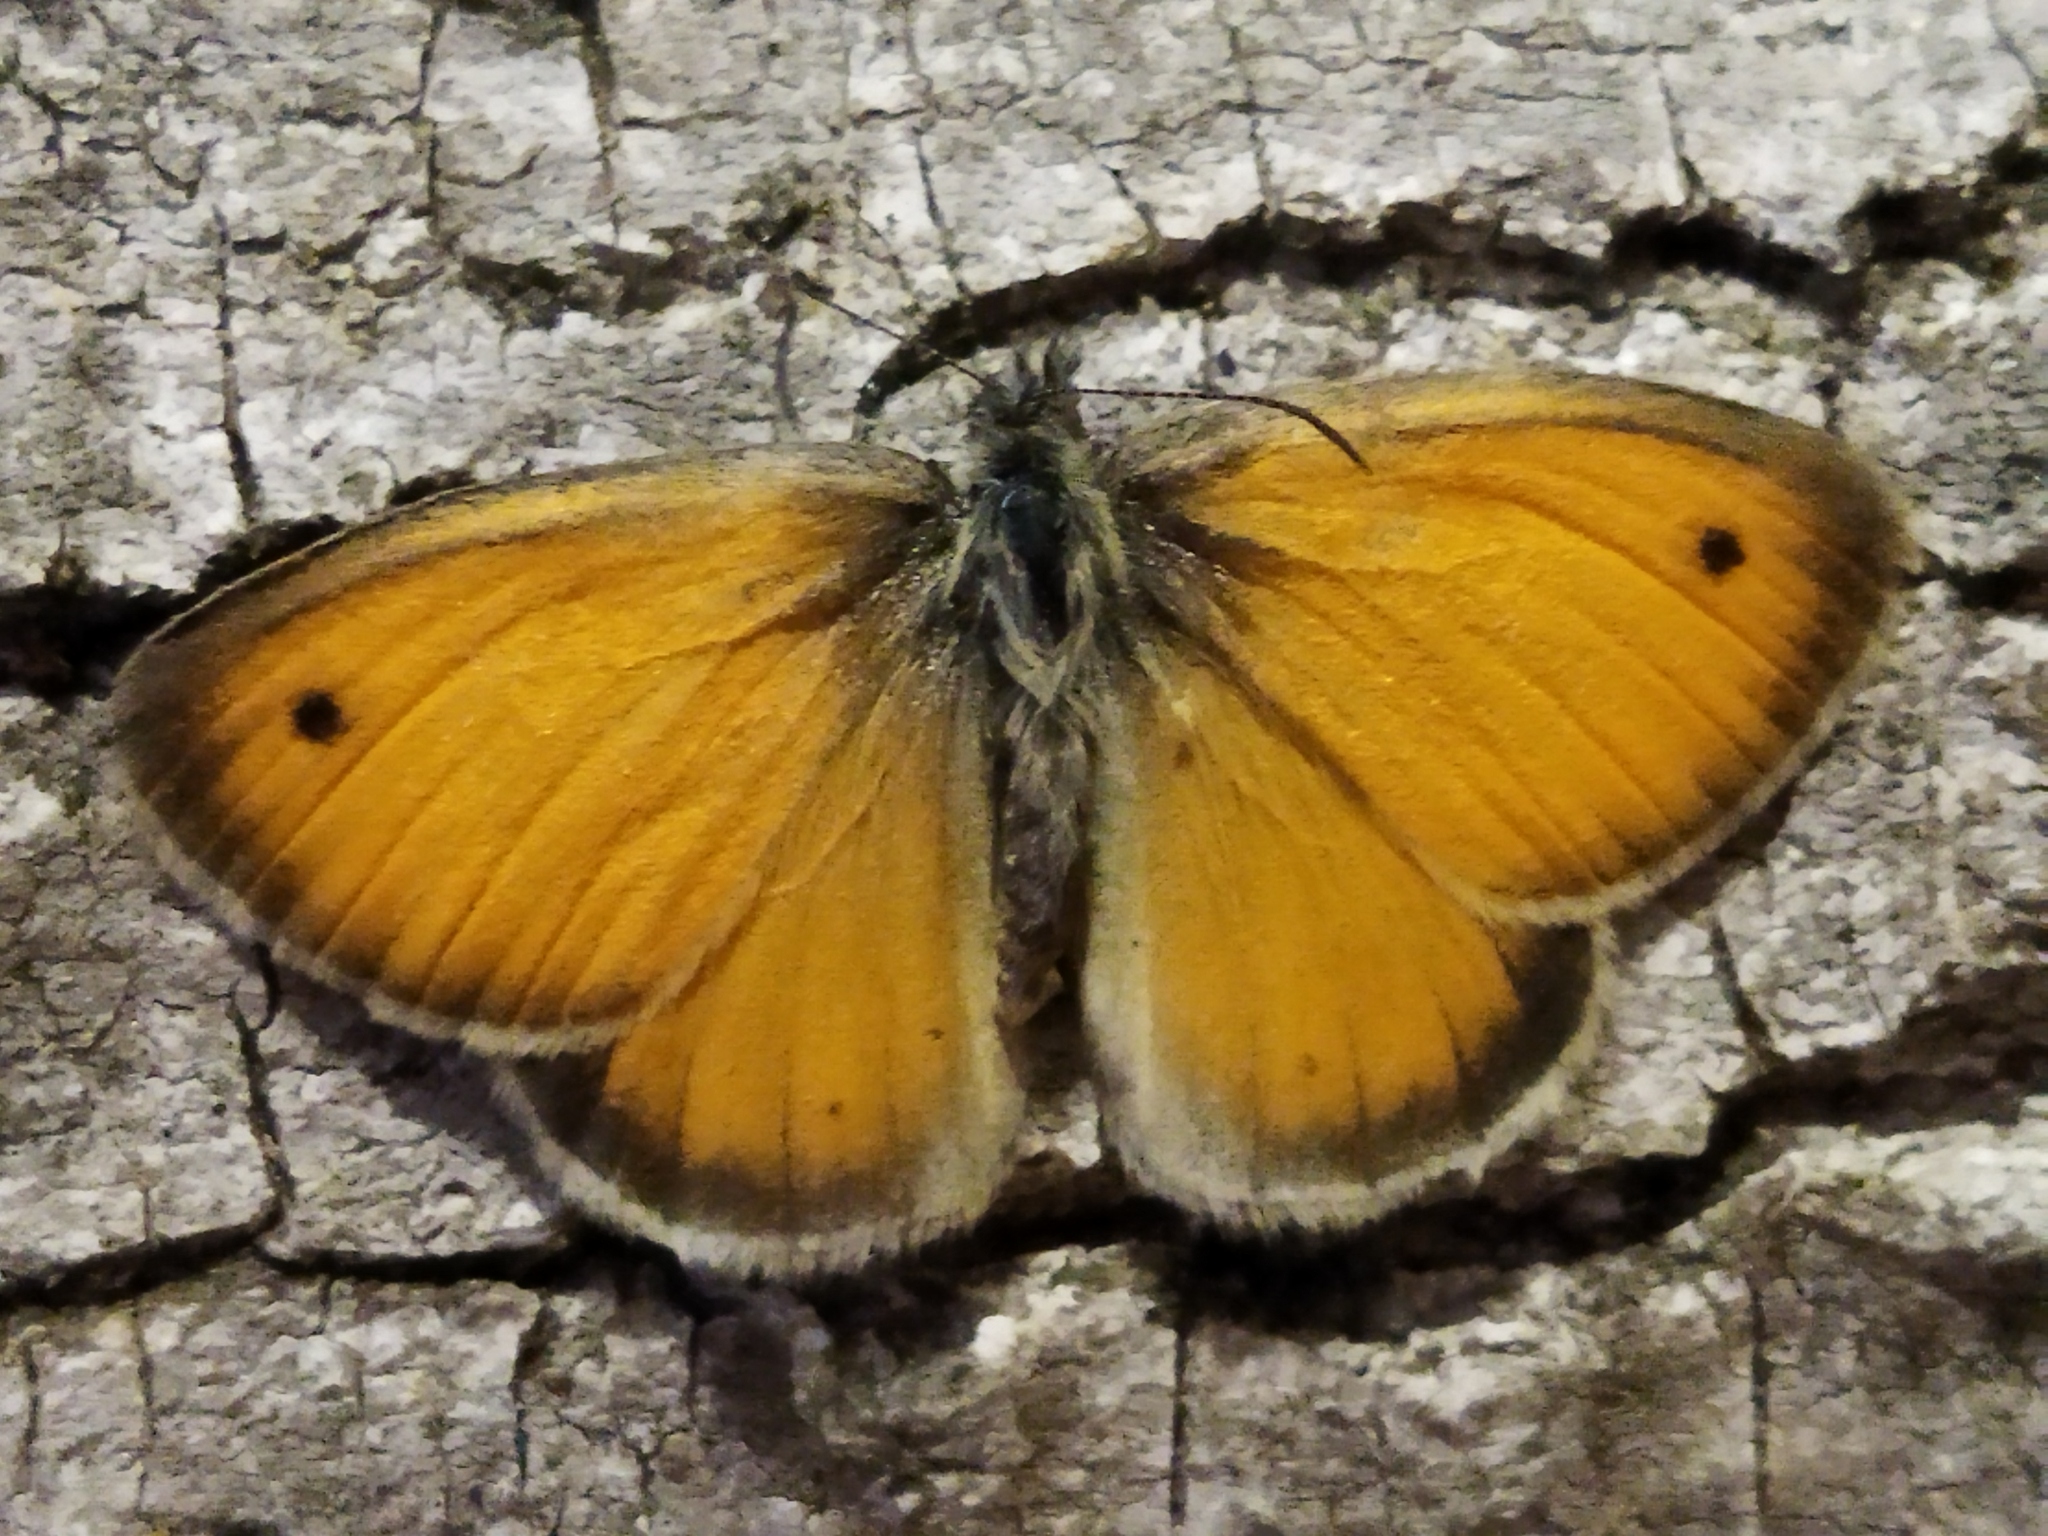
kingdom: Animalia
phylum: Arthropoda
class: Insecta
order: Lepidoptera
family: Nymphalidae
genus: Coenonympha
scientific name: Coenonympha pamphilus
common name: Small heath
